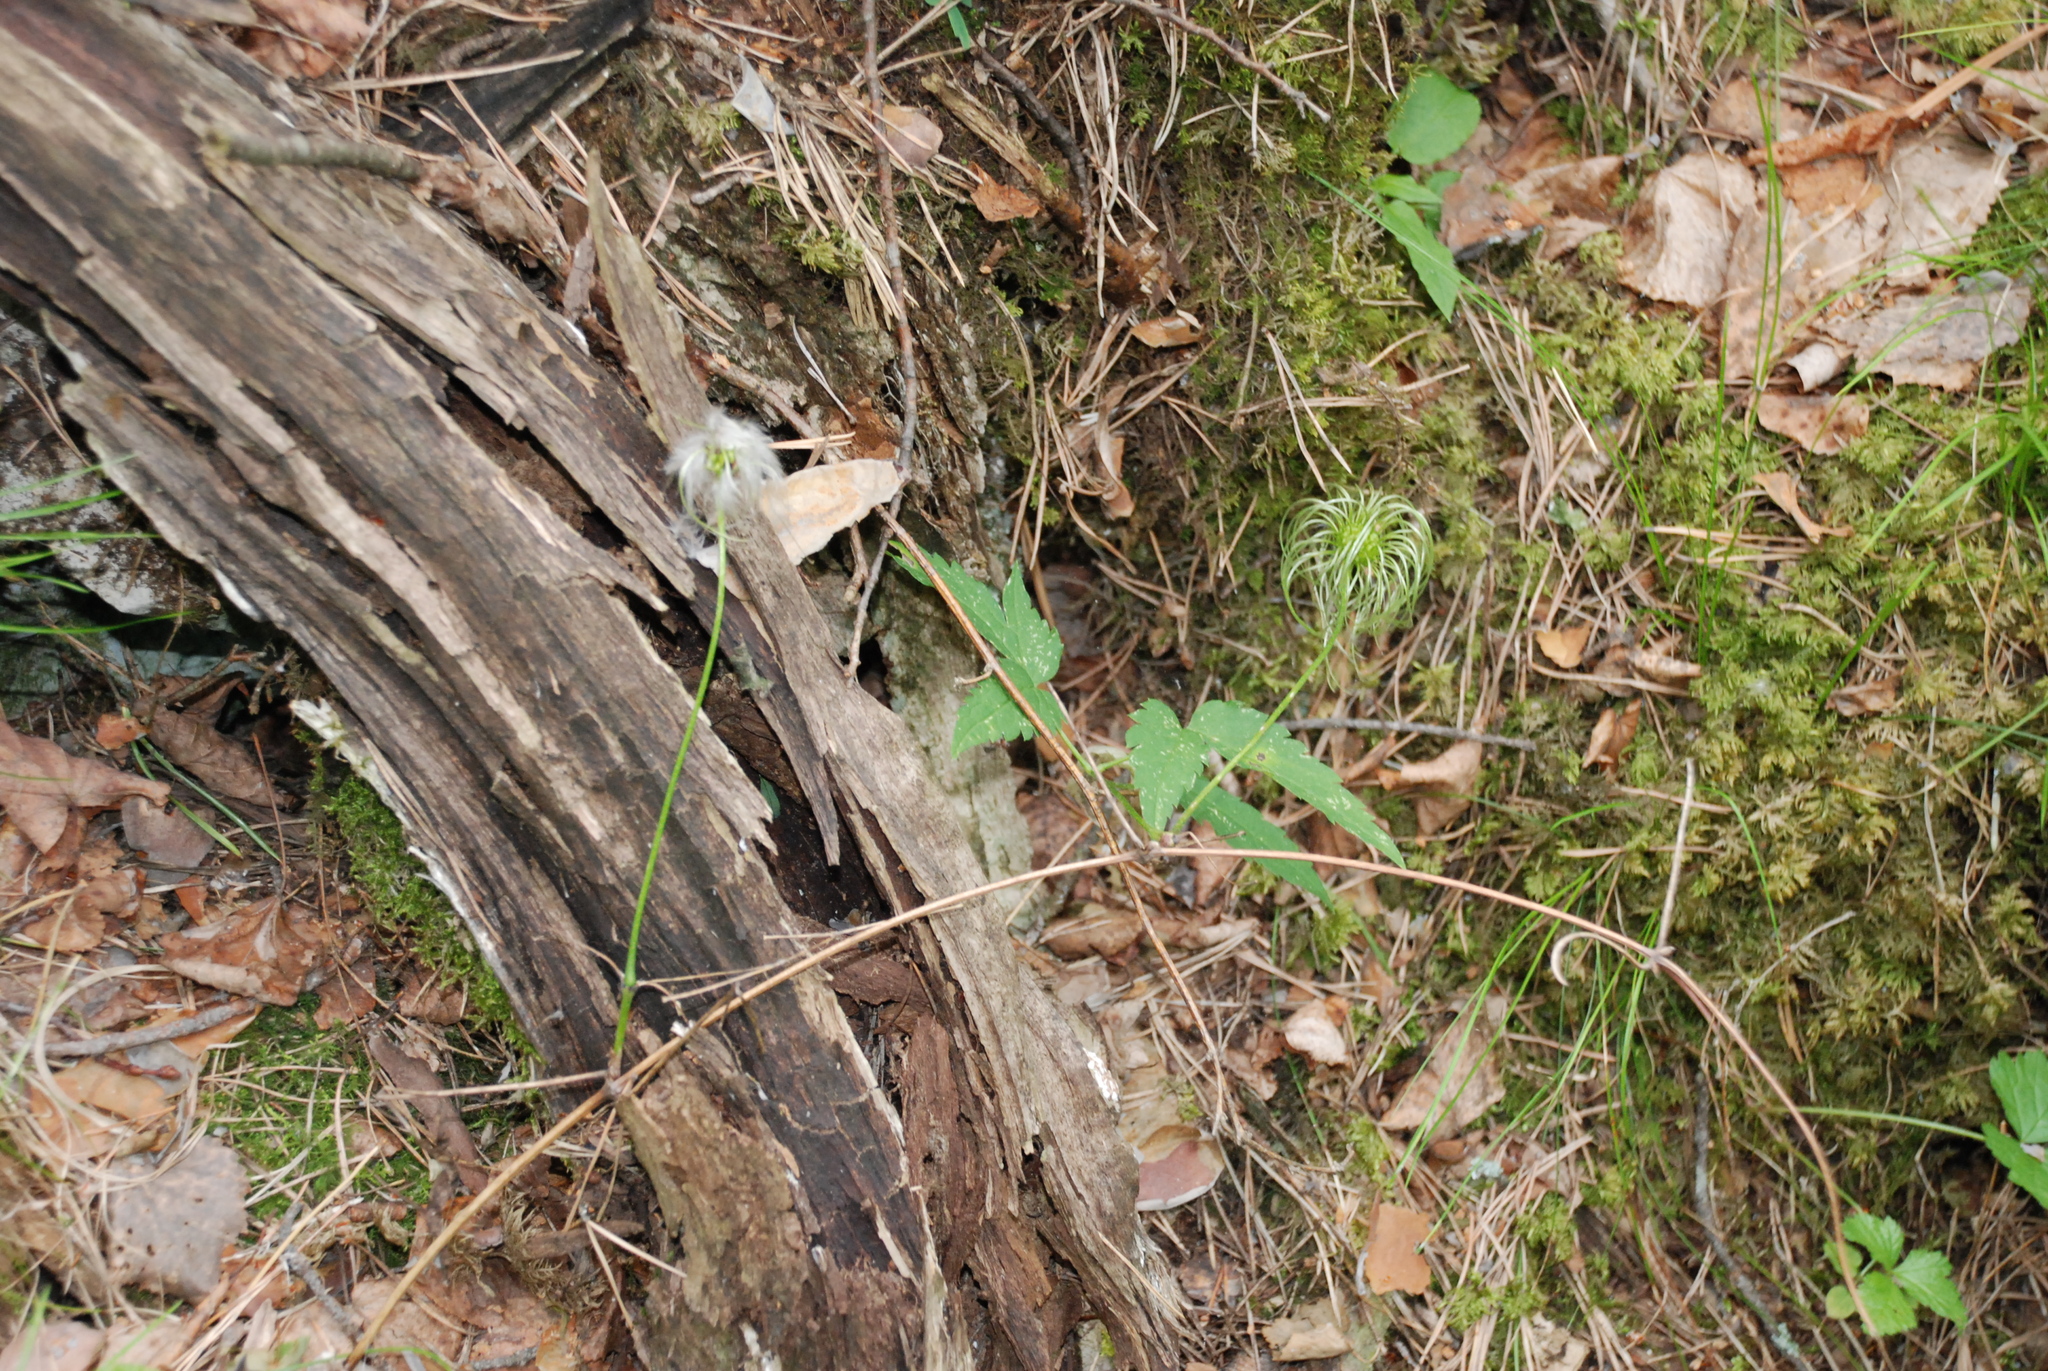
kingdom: Plantae
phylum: Tracheophyta
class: Magnoliopsida
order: Ranunculales
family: Ranunculaceae
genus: Clematis
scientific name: Clematis sibirica
